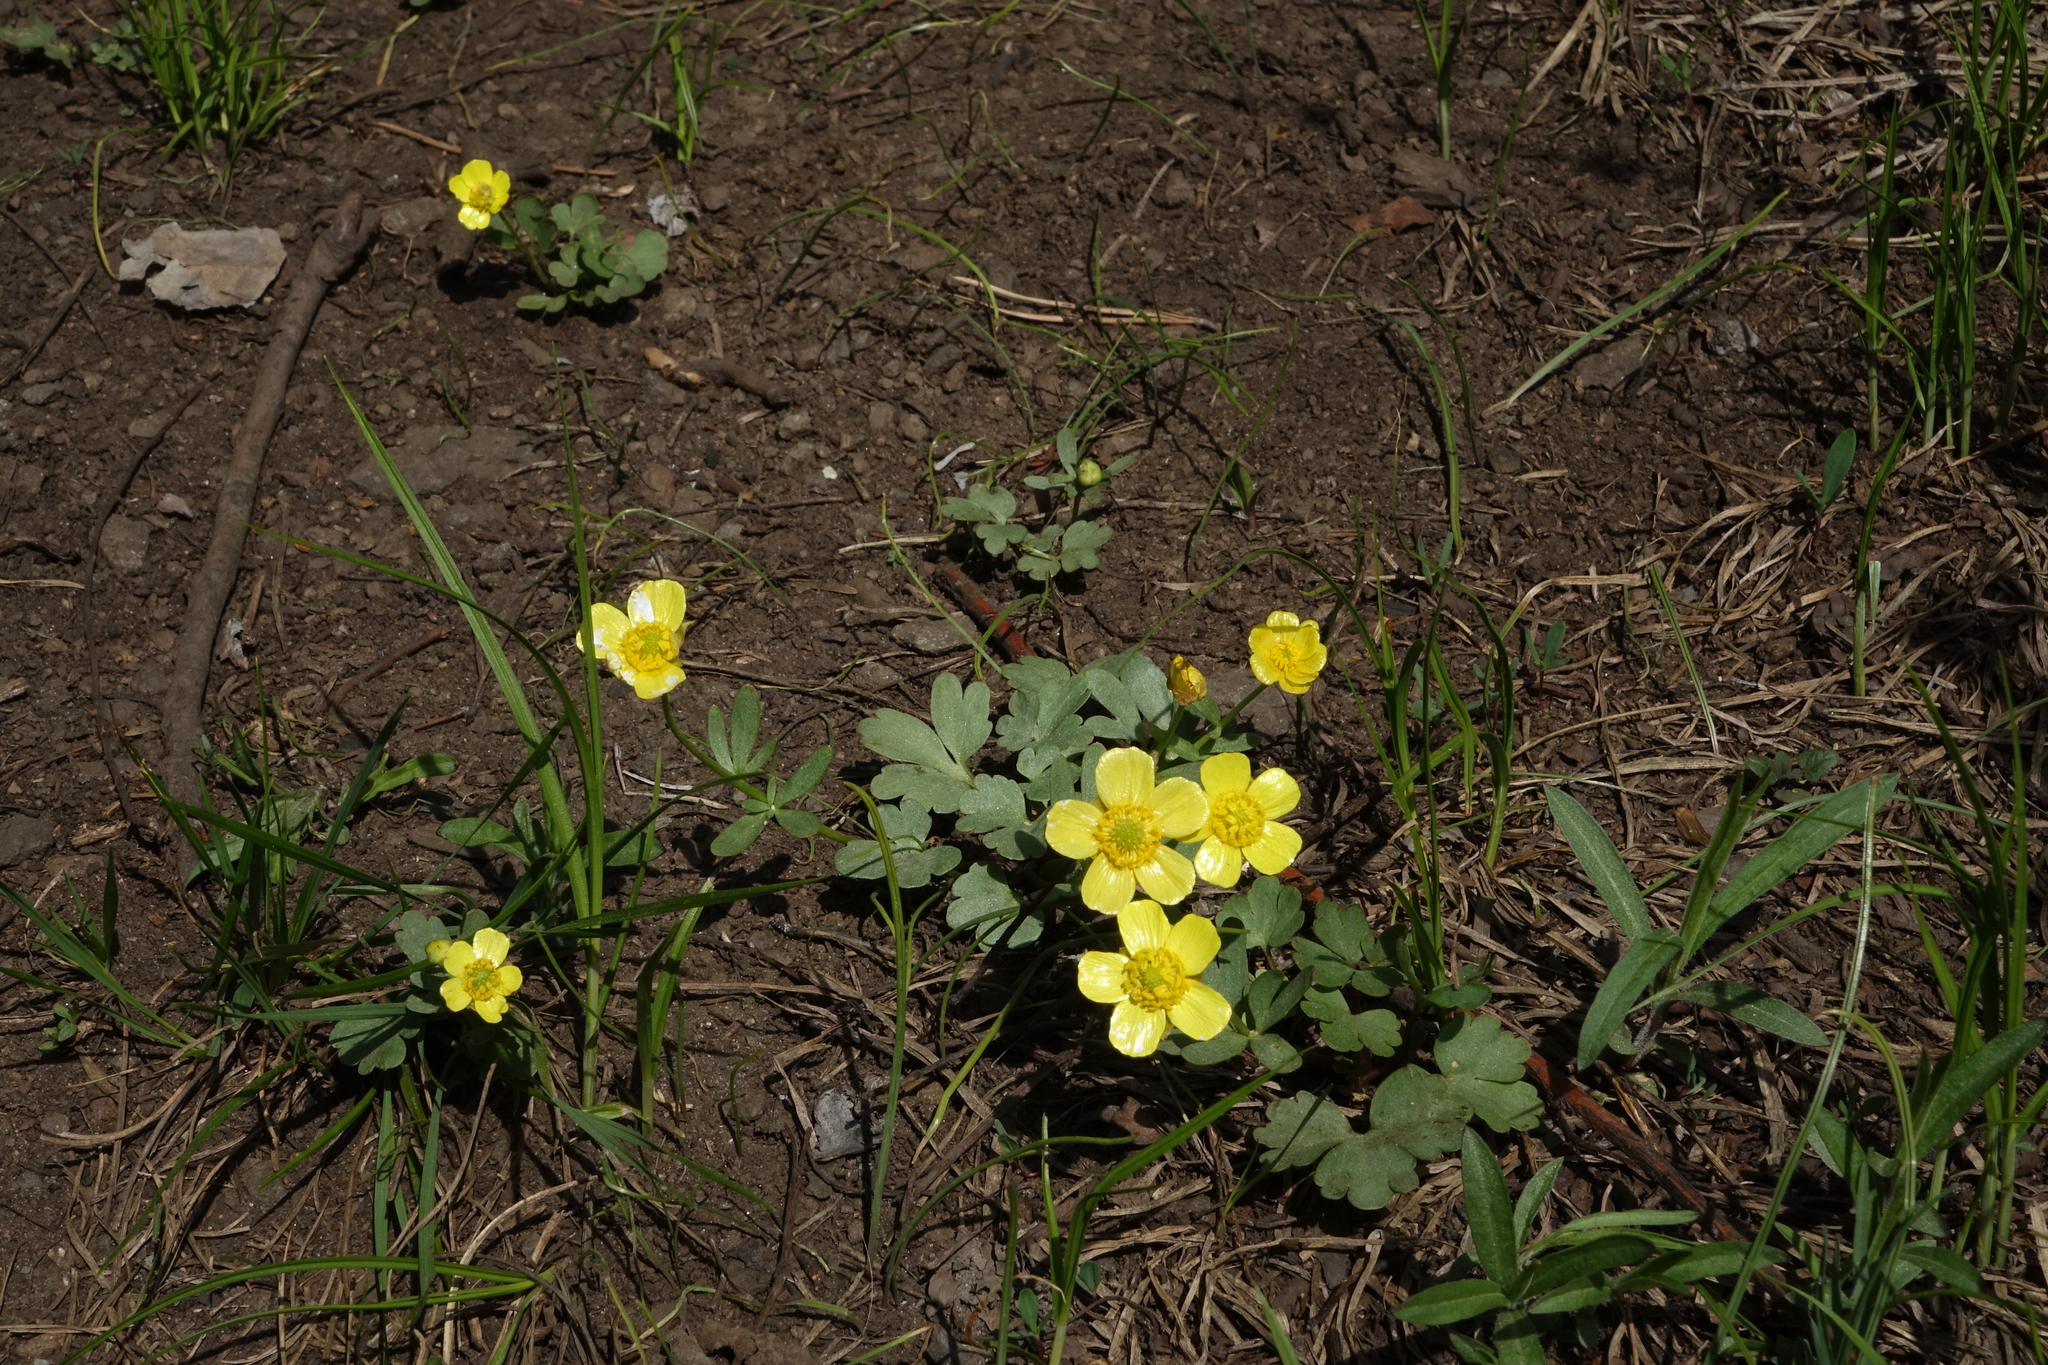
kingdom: Plantae
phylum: Tracheophyta
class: Magnoliopsida
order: Ranunculales
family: Ranunculaceae
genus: Ranunculus
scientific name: Ranunculus polyrhizos
